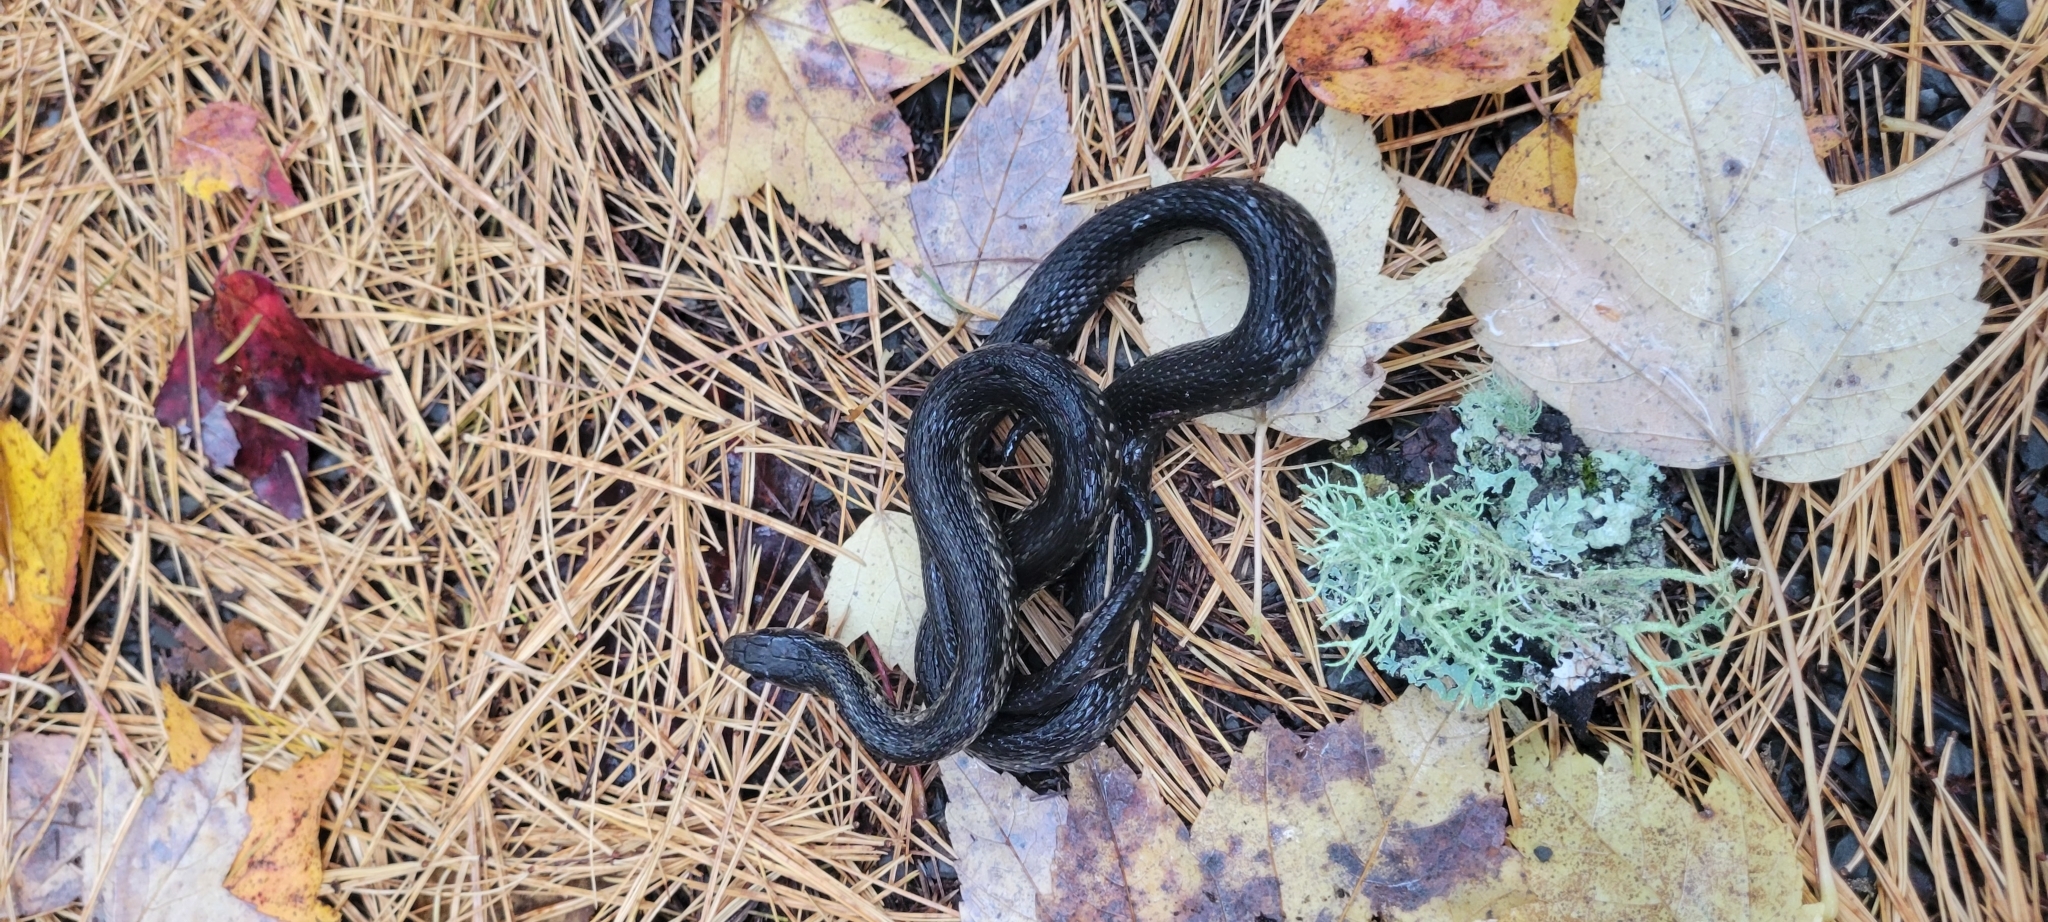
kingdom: Animalia
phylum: Chordata
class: Squamata
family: Colubridae
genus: Thamnophis
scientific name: Thamnophis sirtalis
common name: Common garter snake
